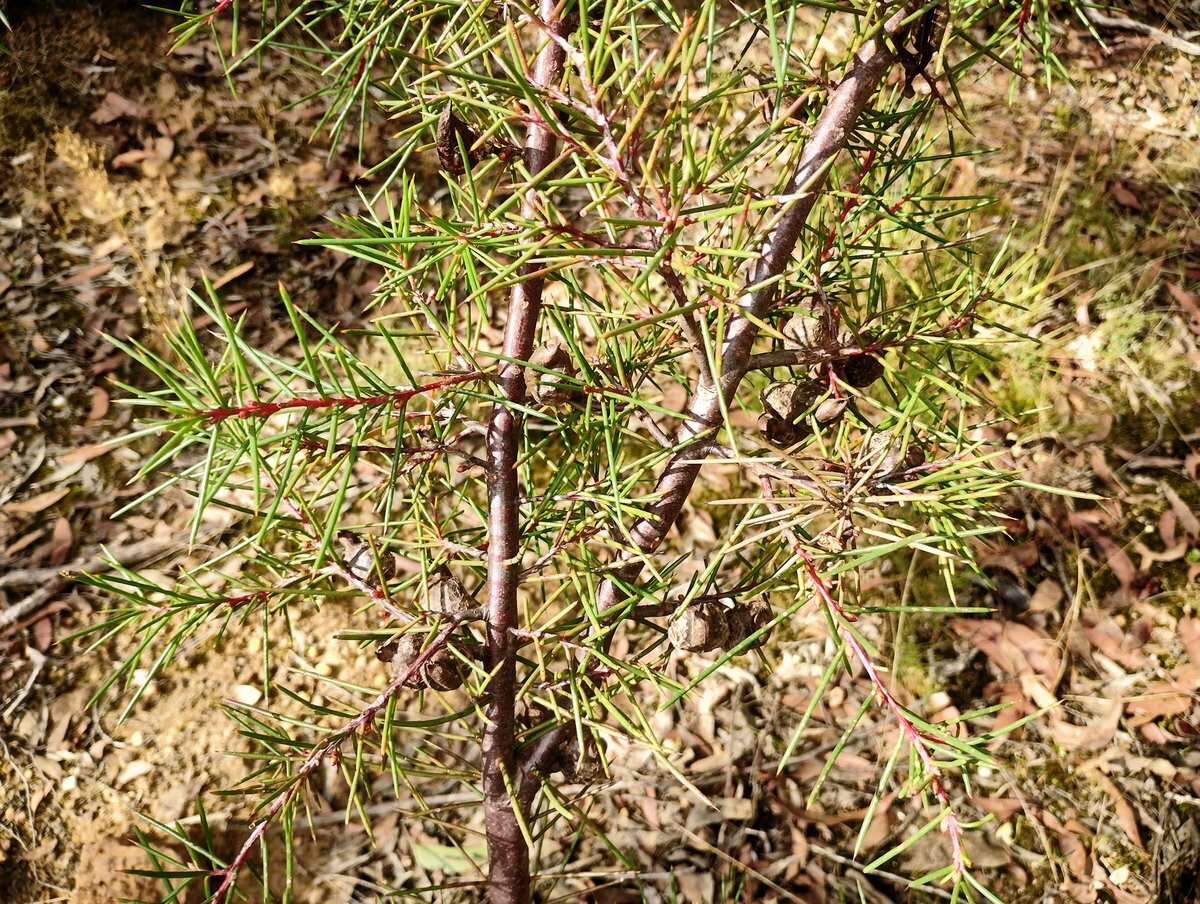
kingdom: Plantae
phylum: Tracheophyta
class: Magnoliopsida
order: Proteales
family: Proteaceae
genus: Hakea
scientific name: Hakea decurrens
